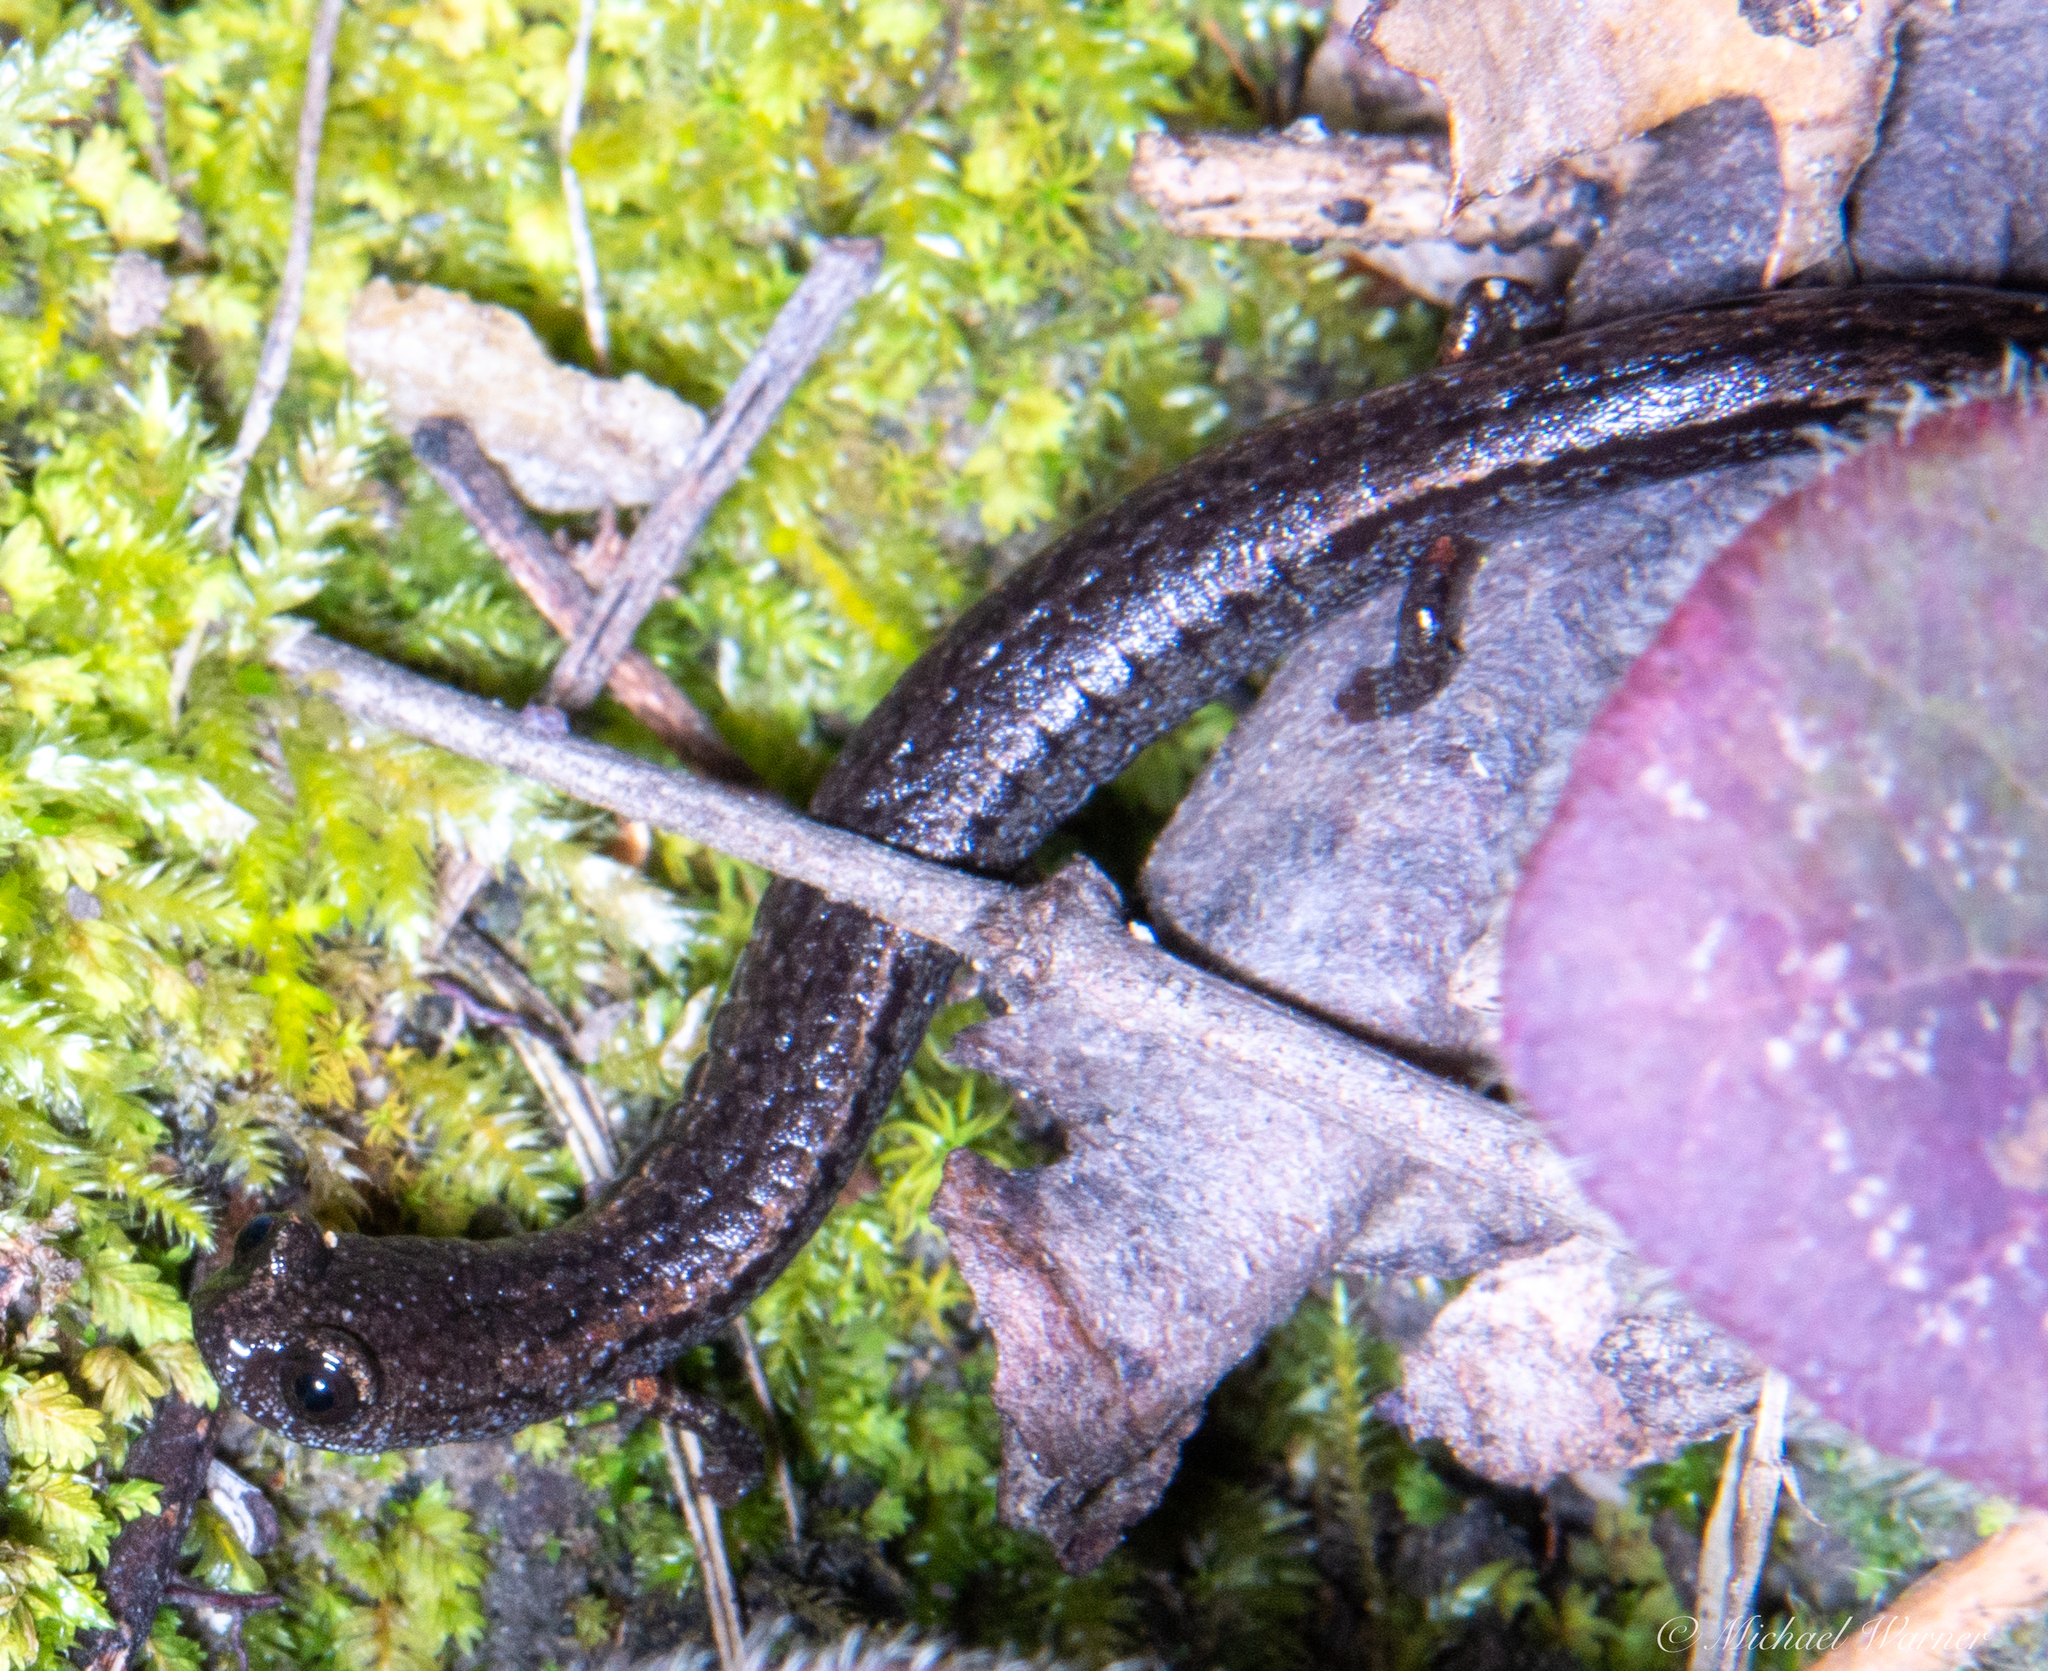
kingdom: Animalia
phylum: Chordata
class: Amphibia
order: Caudata
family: Plethodontidae
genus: Batrachoseps
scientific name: Batrachoseps attenuatus
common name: California slender salamander
